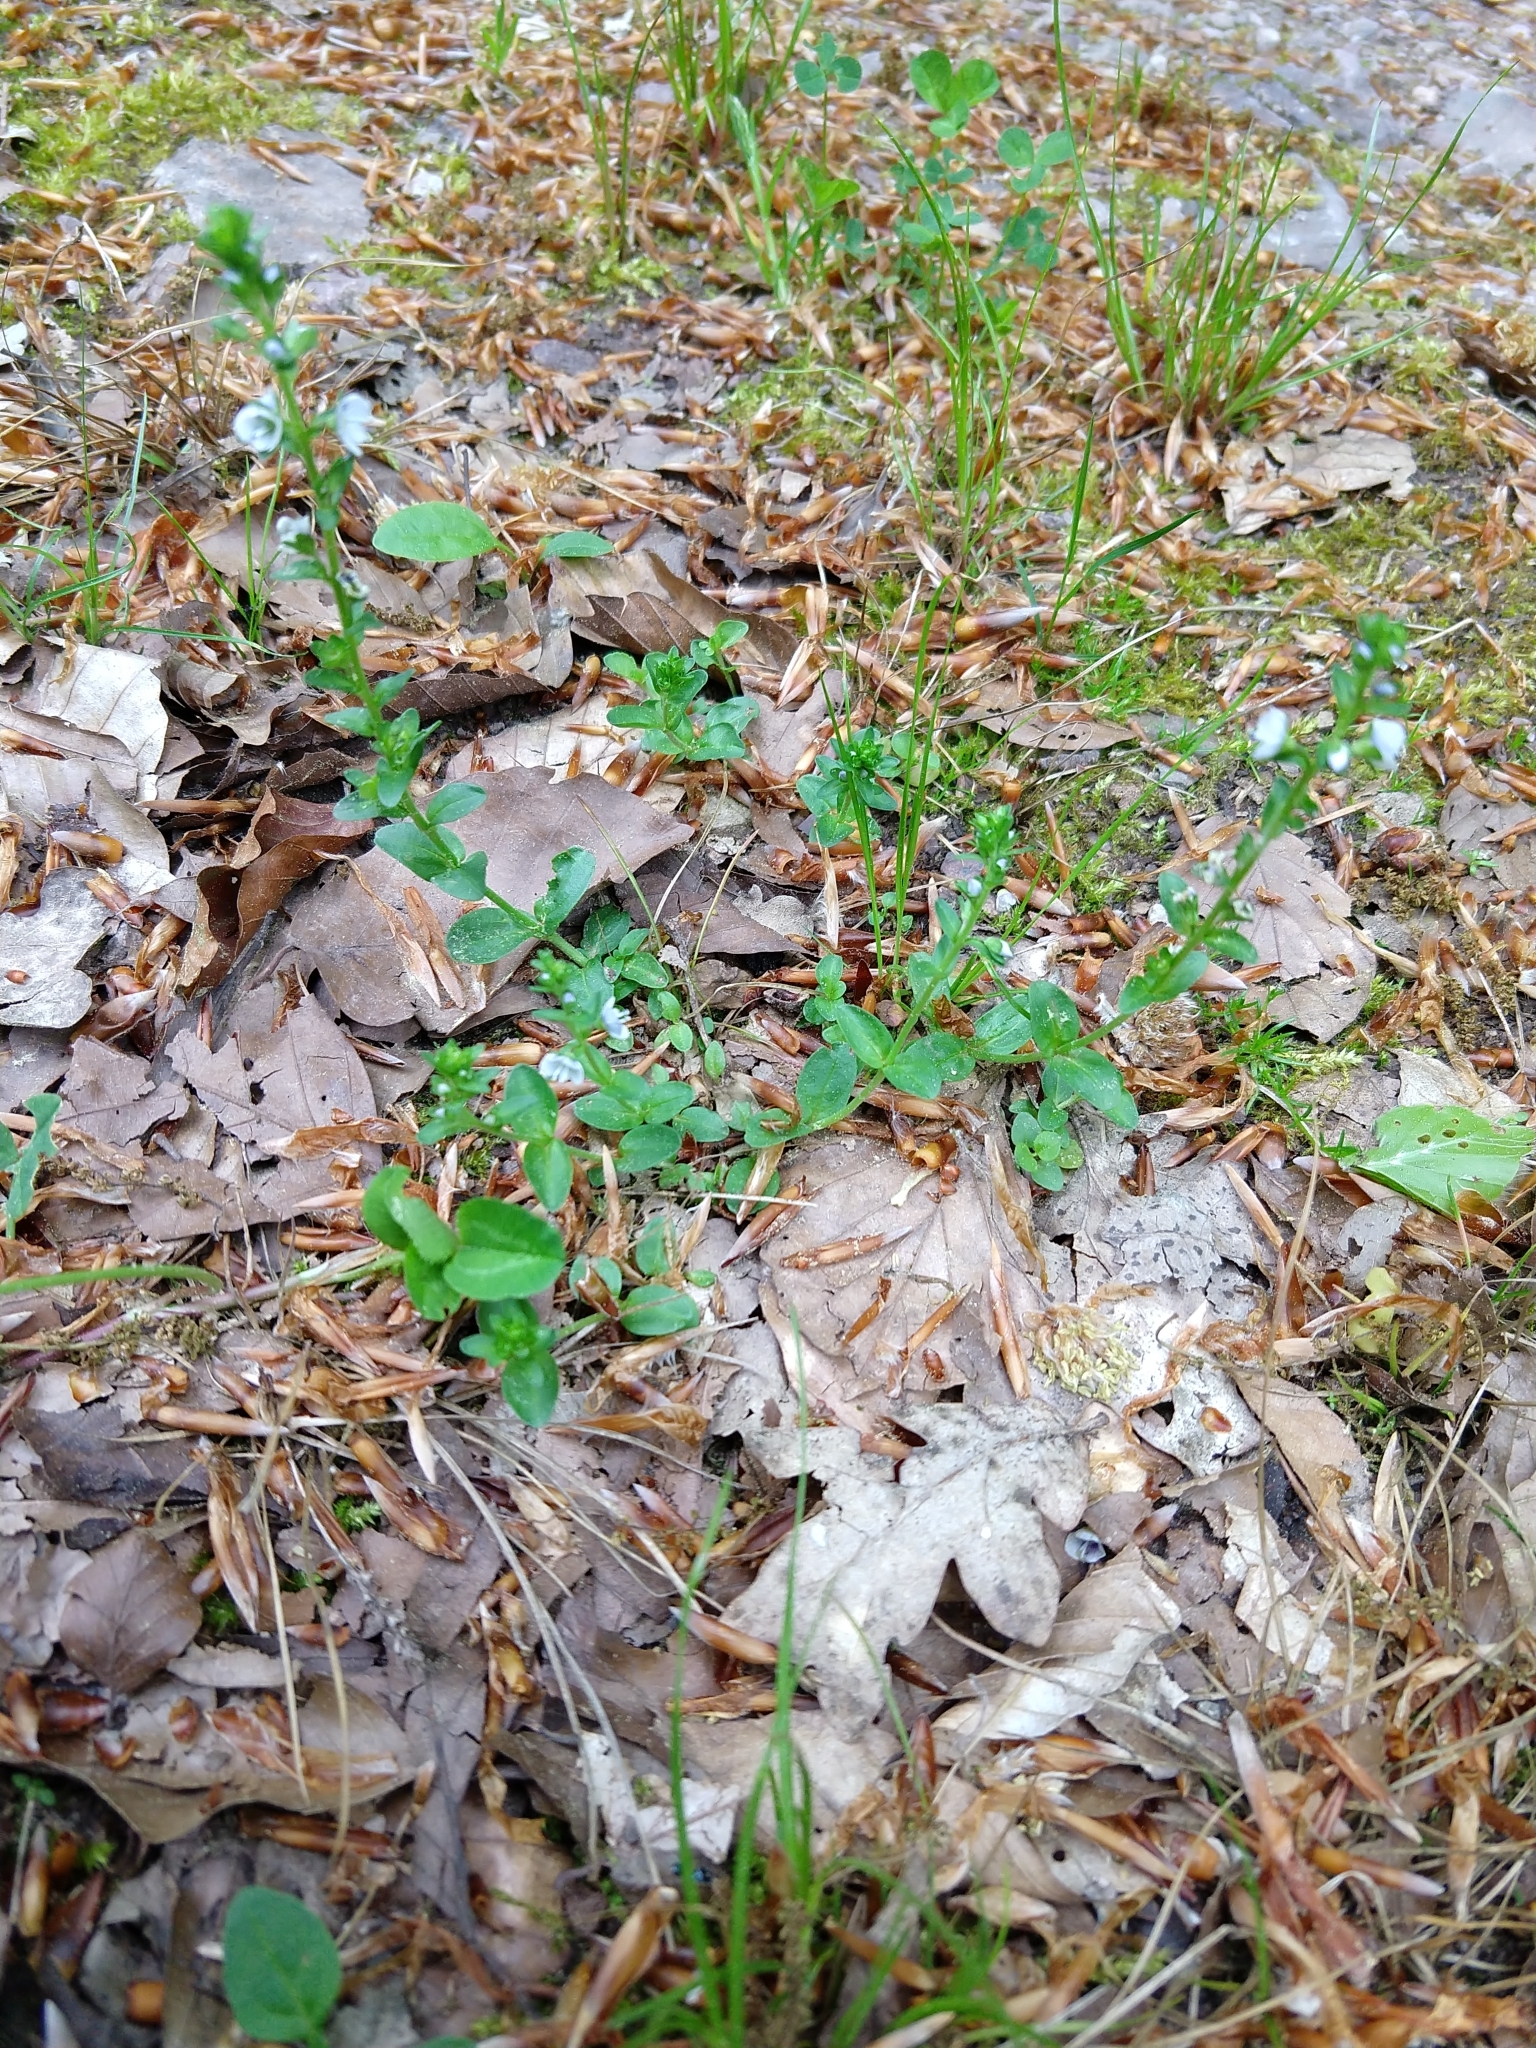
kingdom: Plantae
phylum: Tracheophyta
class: Magnoliopsida
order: Lamiales
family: Plantaginaceae
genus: Veronica
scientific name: Veronica serpyllifolia
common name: Thyme-leaved speedwell
